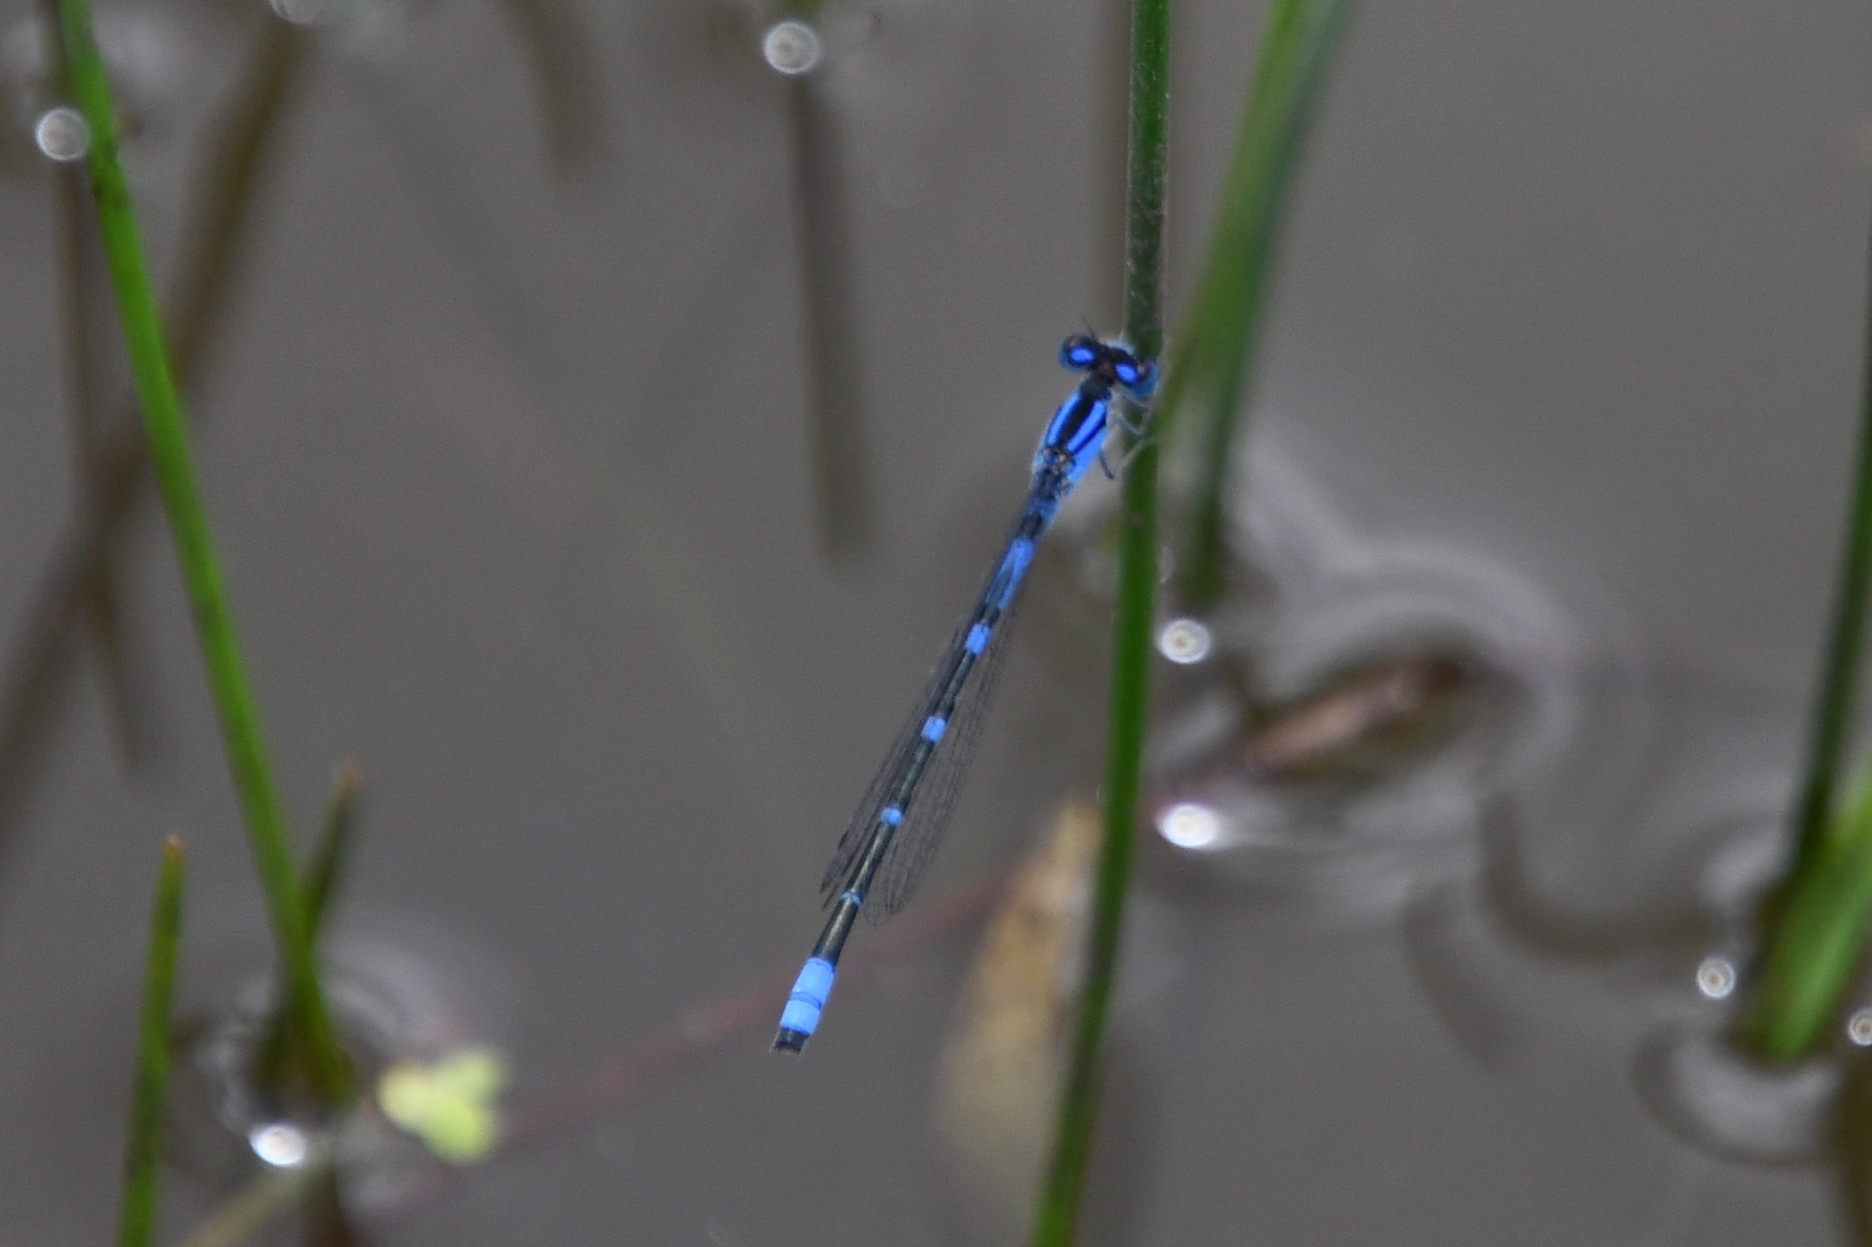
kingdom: Animalia
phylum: Arthropoda
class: Insecta
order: Odonata
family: Coenagrionidae
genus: Enallagma
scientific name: Enallagma praevarum
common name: Arroyo bluet
